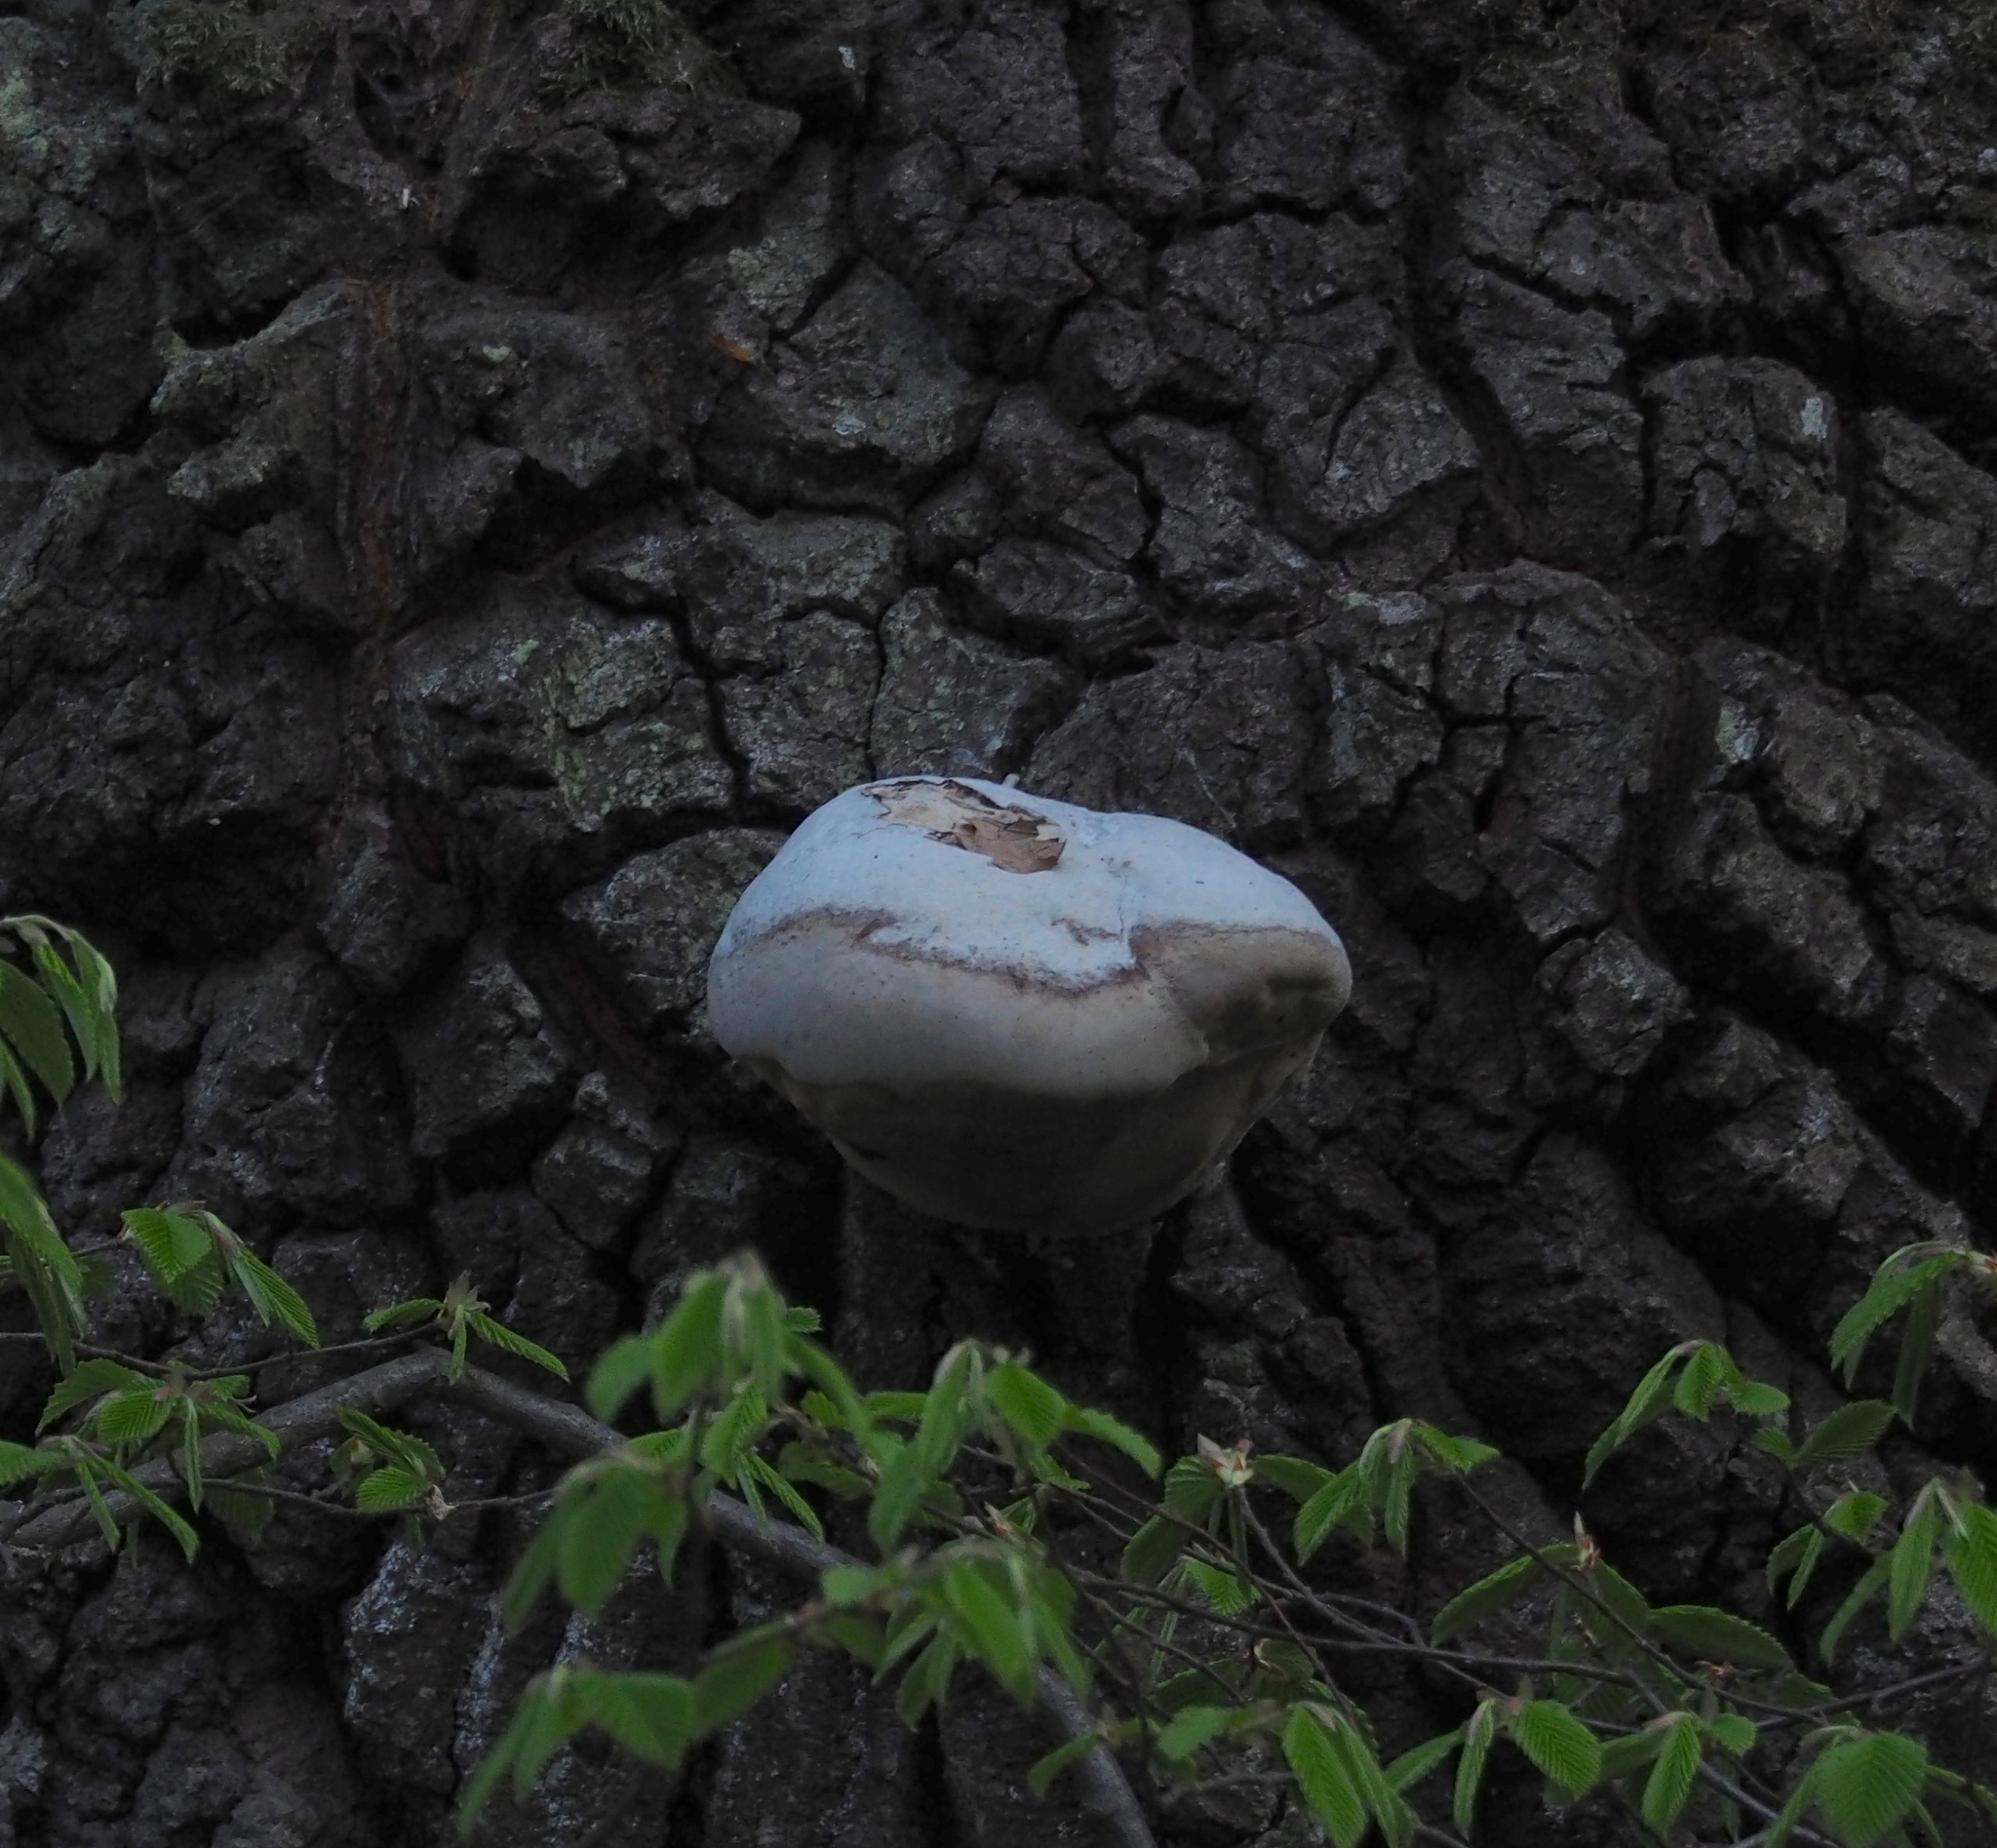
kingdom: Fungi
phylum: Basidiomycota
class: Agaricomycetes
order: Polyporales
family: Polyporaceae
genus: Fomes
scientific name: Fomes fomentarius
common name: Hoof fungus
